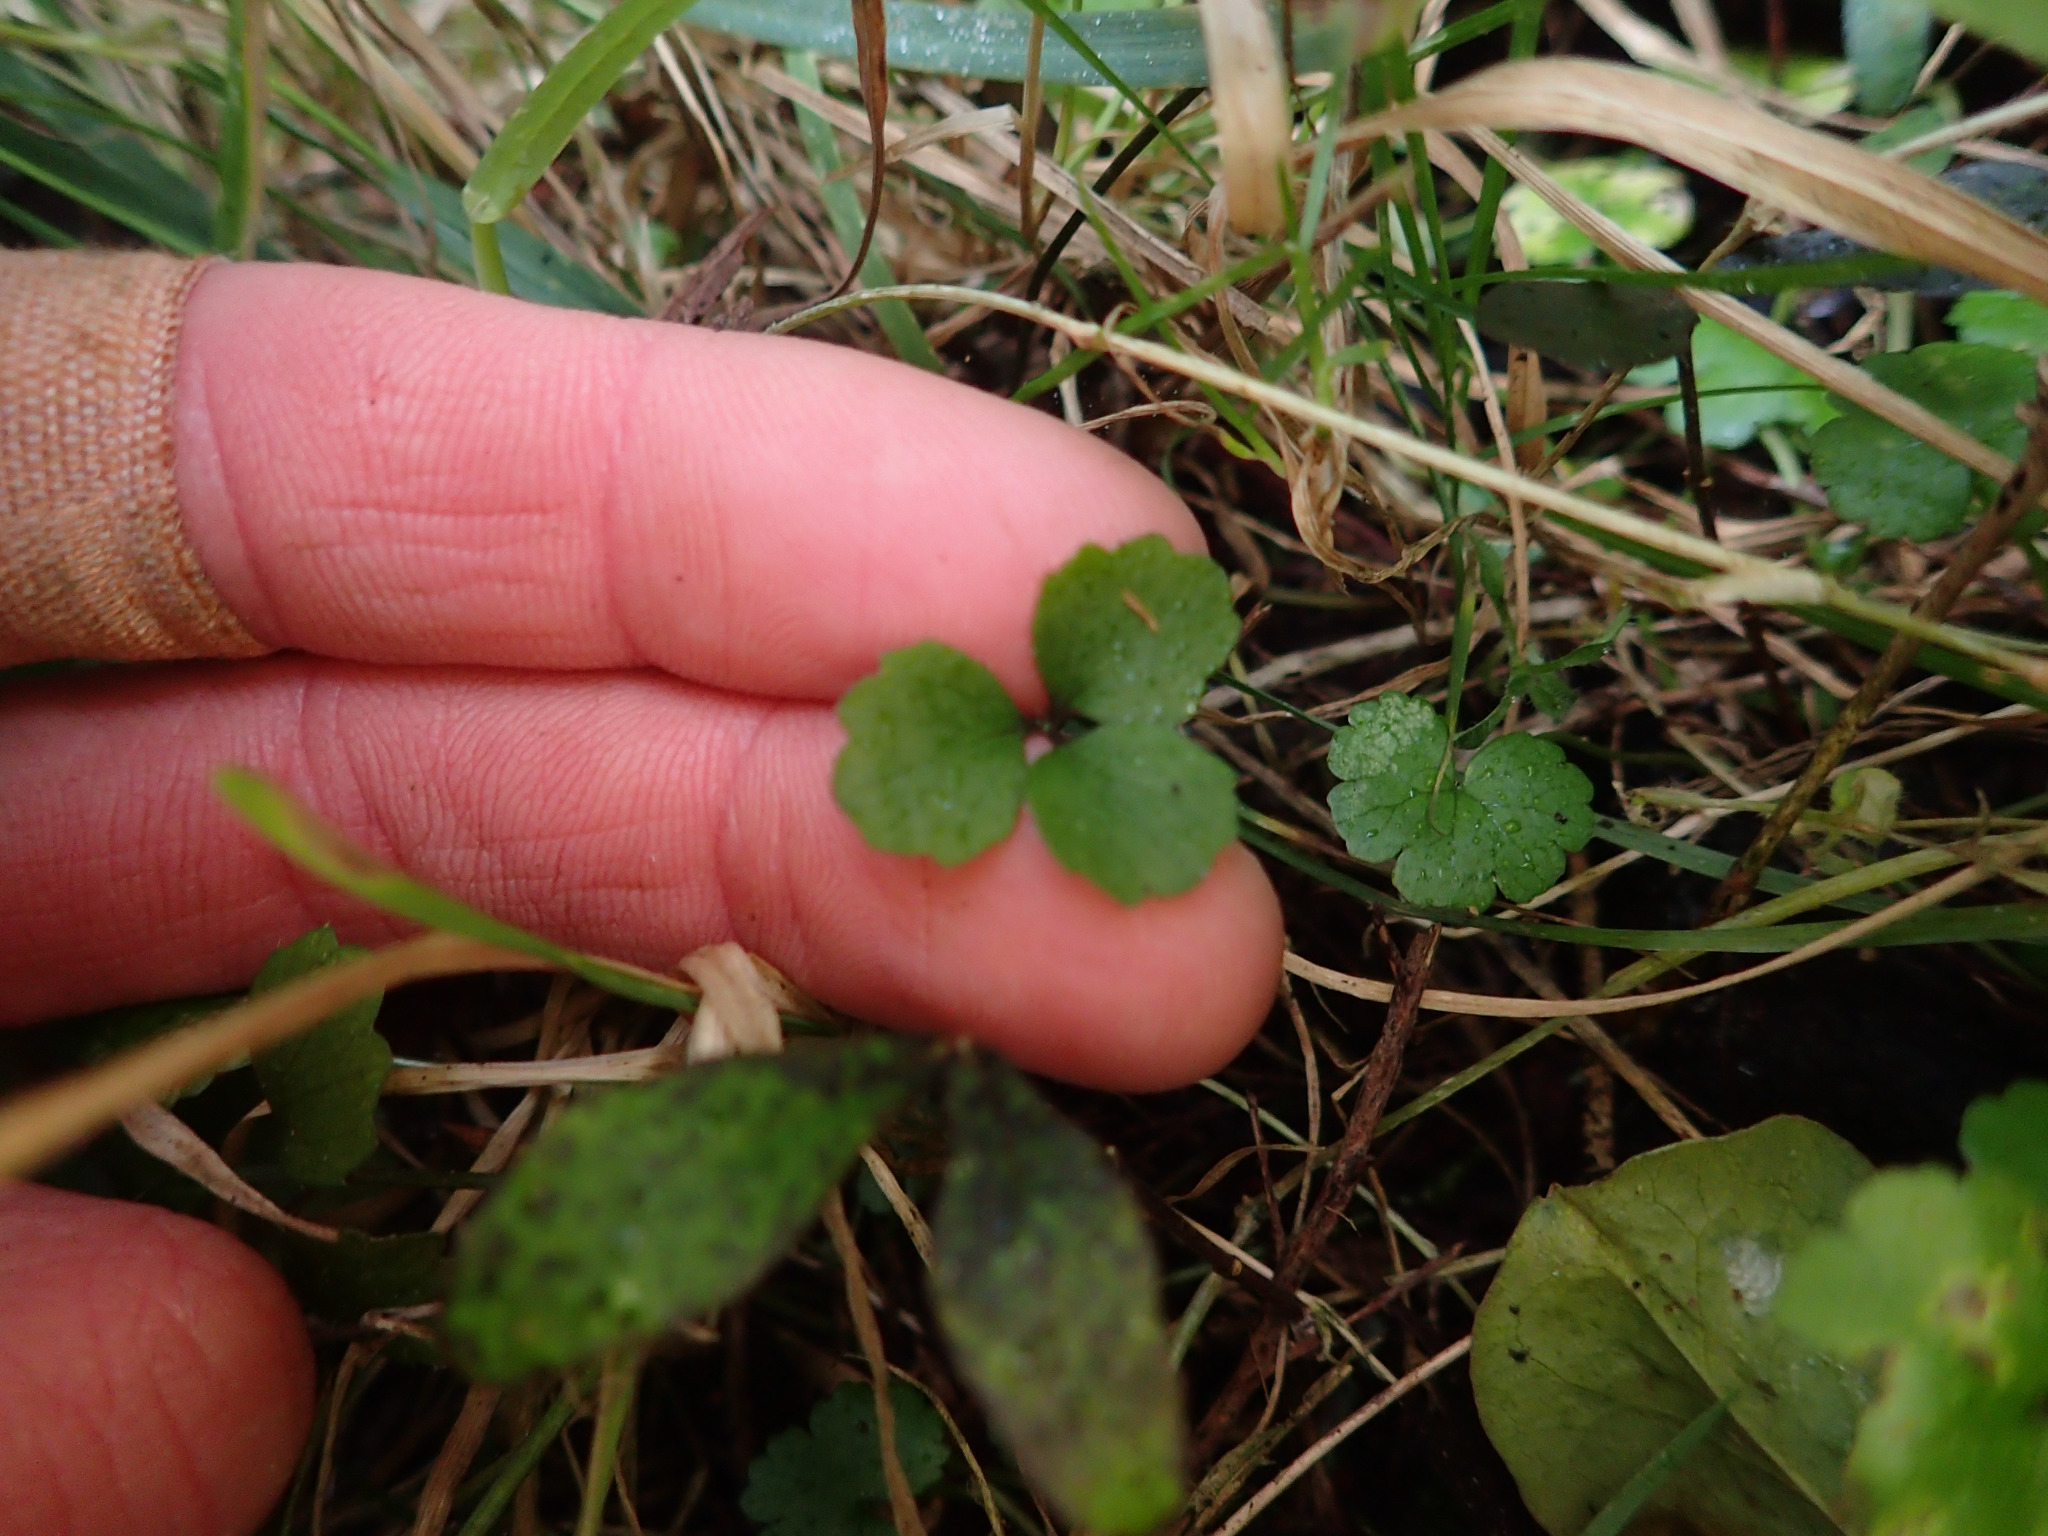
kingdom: Plantae
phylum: Tracheophyta
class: Magnoliopsida
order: Apiales
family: Apiaceae
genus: Azorella
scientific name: Azorella hookeri
